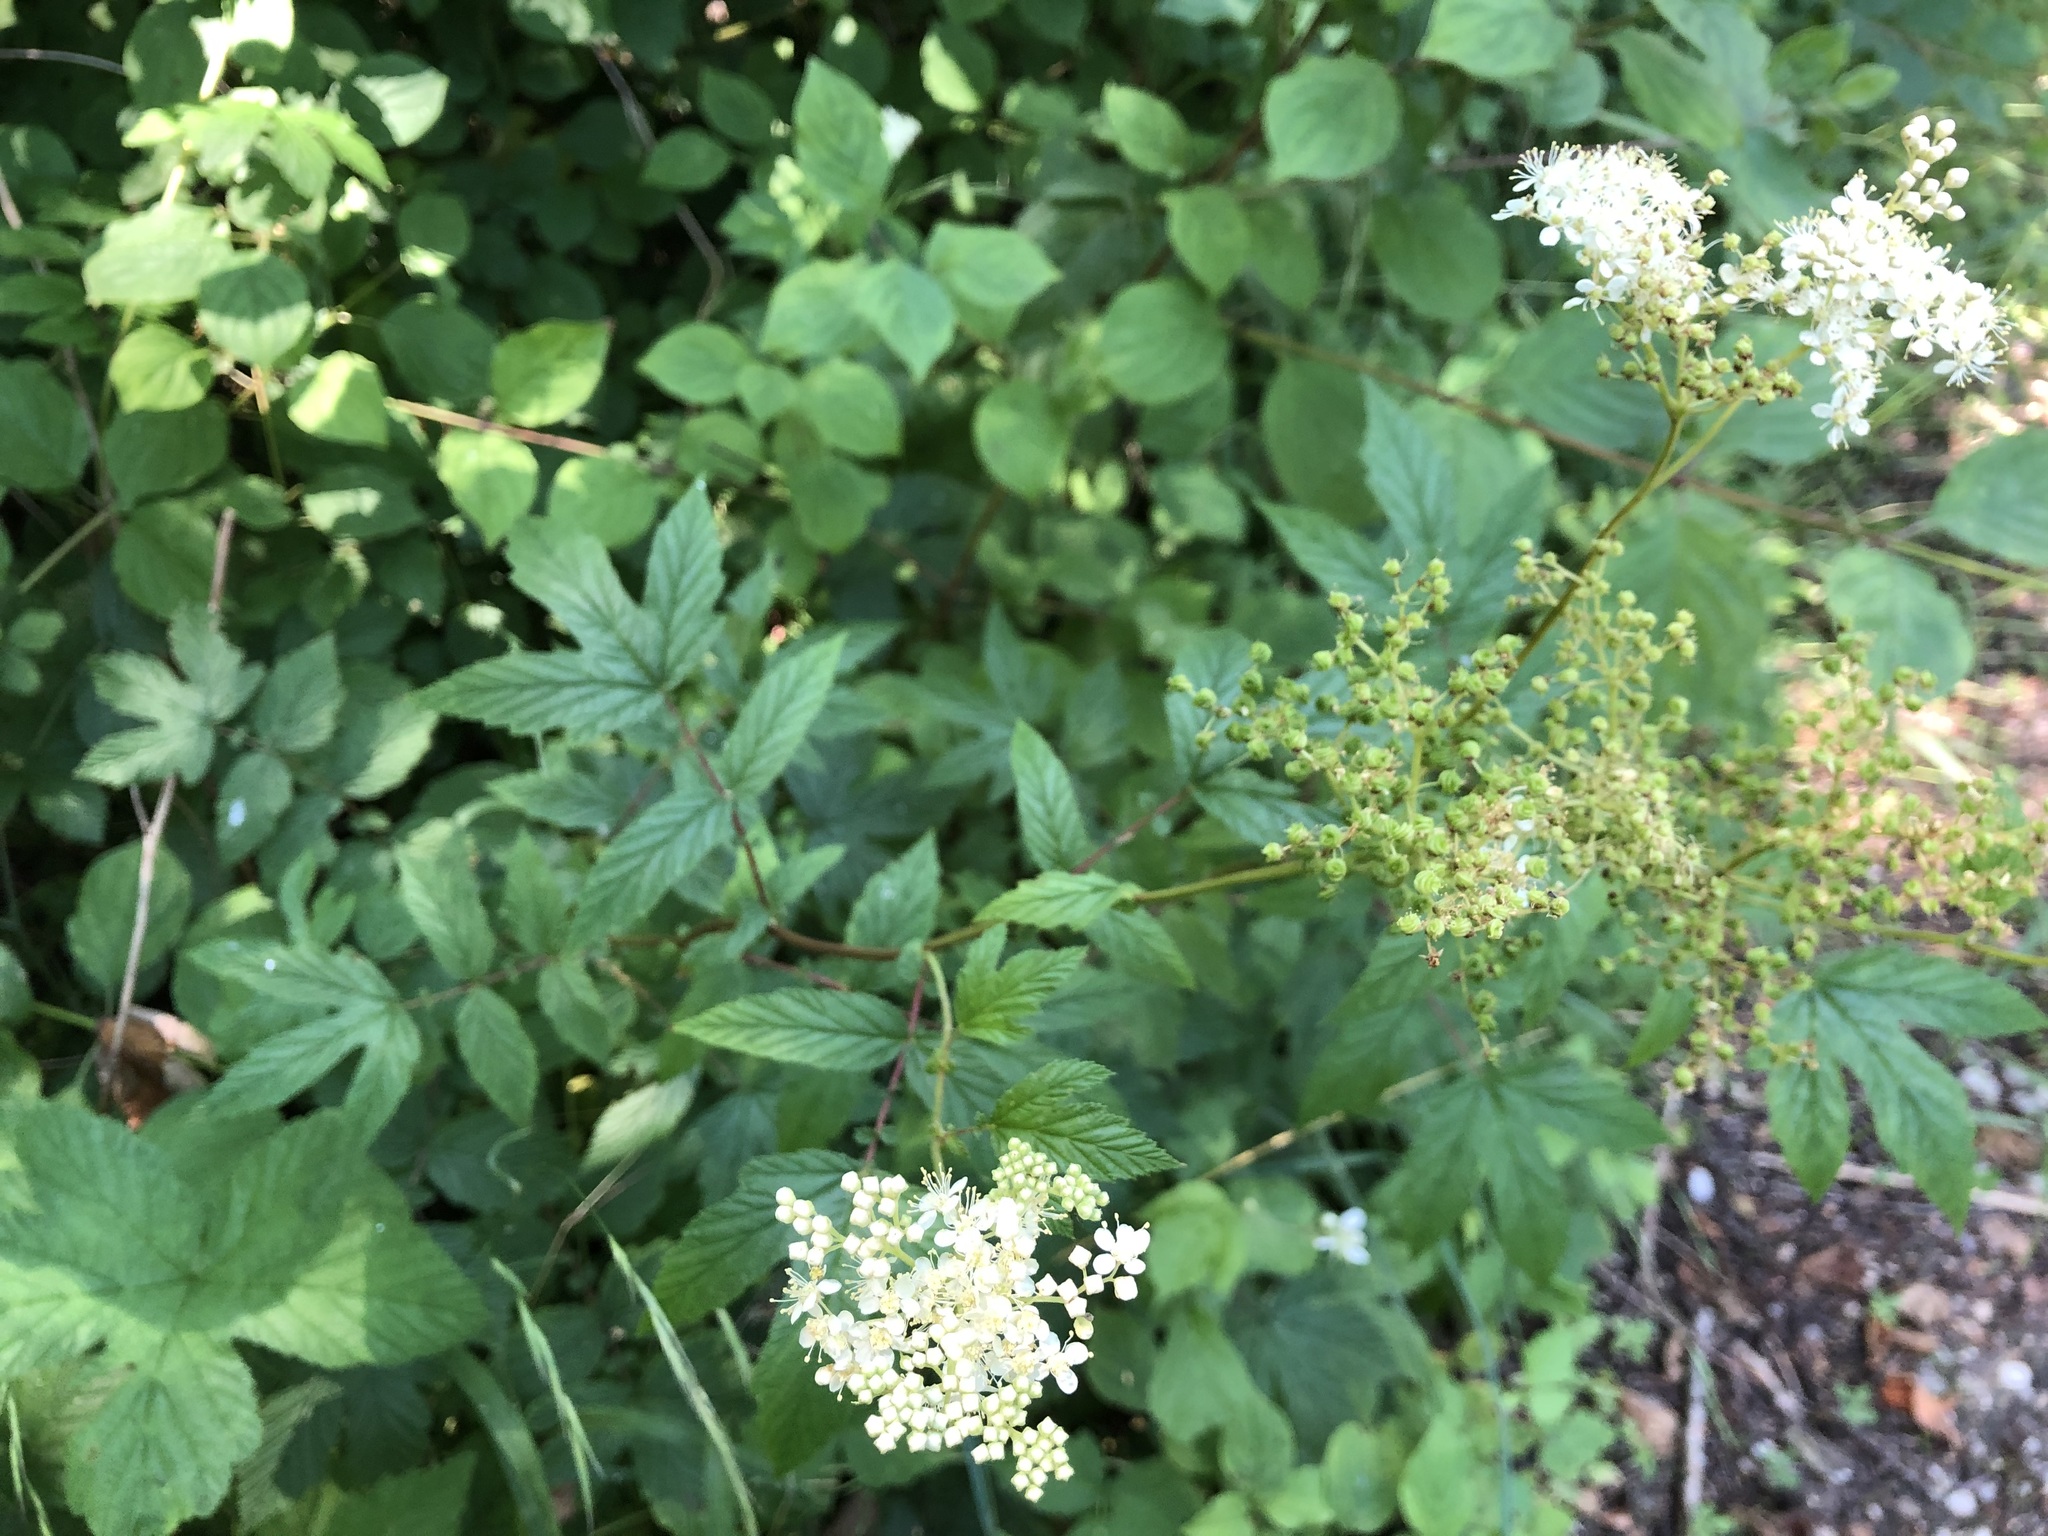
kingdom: Plantae
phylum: Tracheophyta
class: Magnoliopsida
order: Rosales
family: Rosaceae
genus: Filipendula
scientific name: Filipendula ulmaria
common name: Meadowsweet
